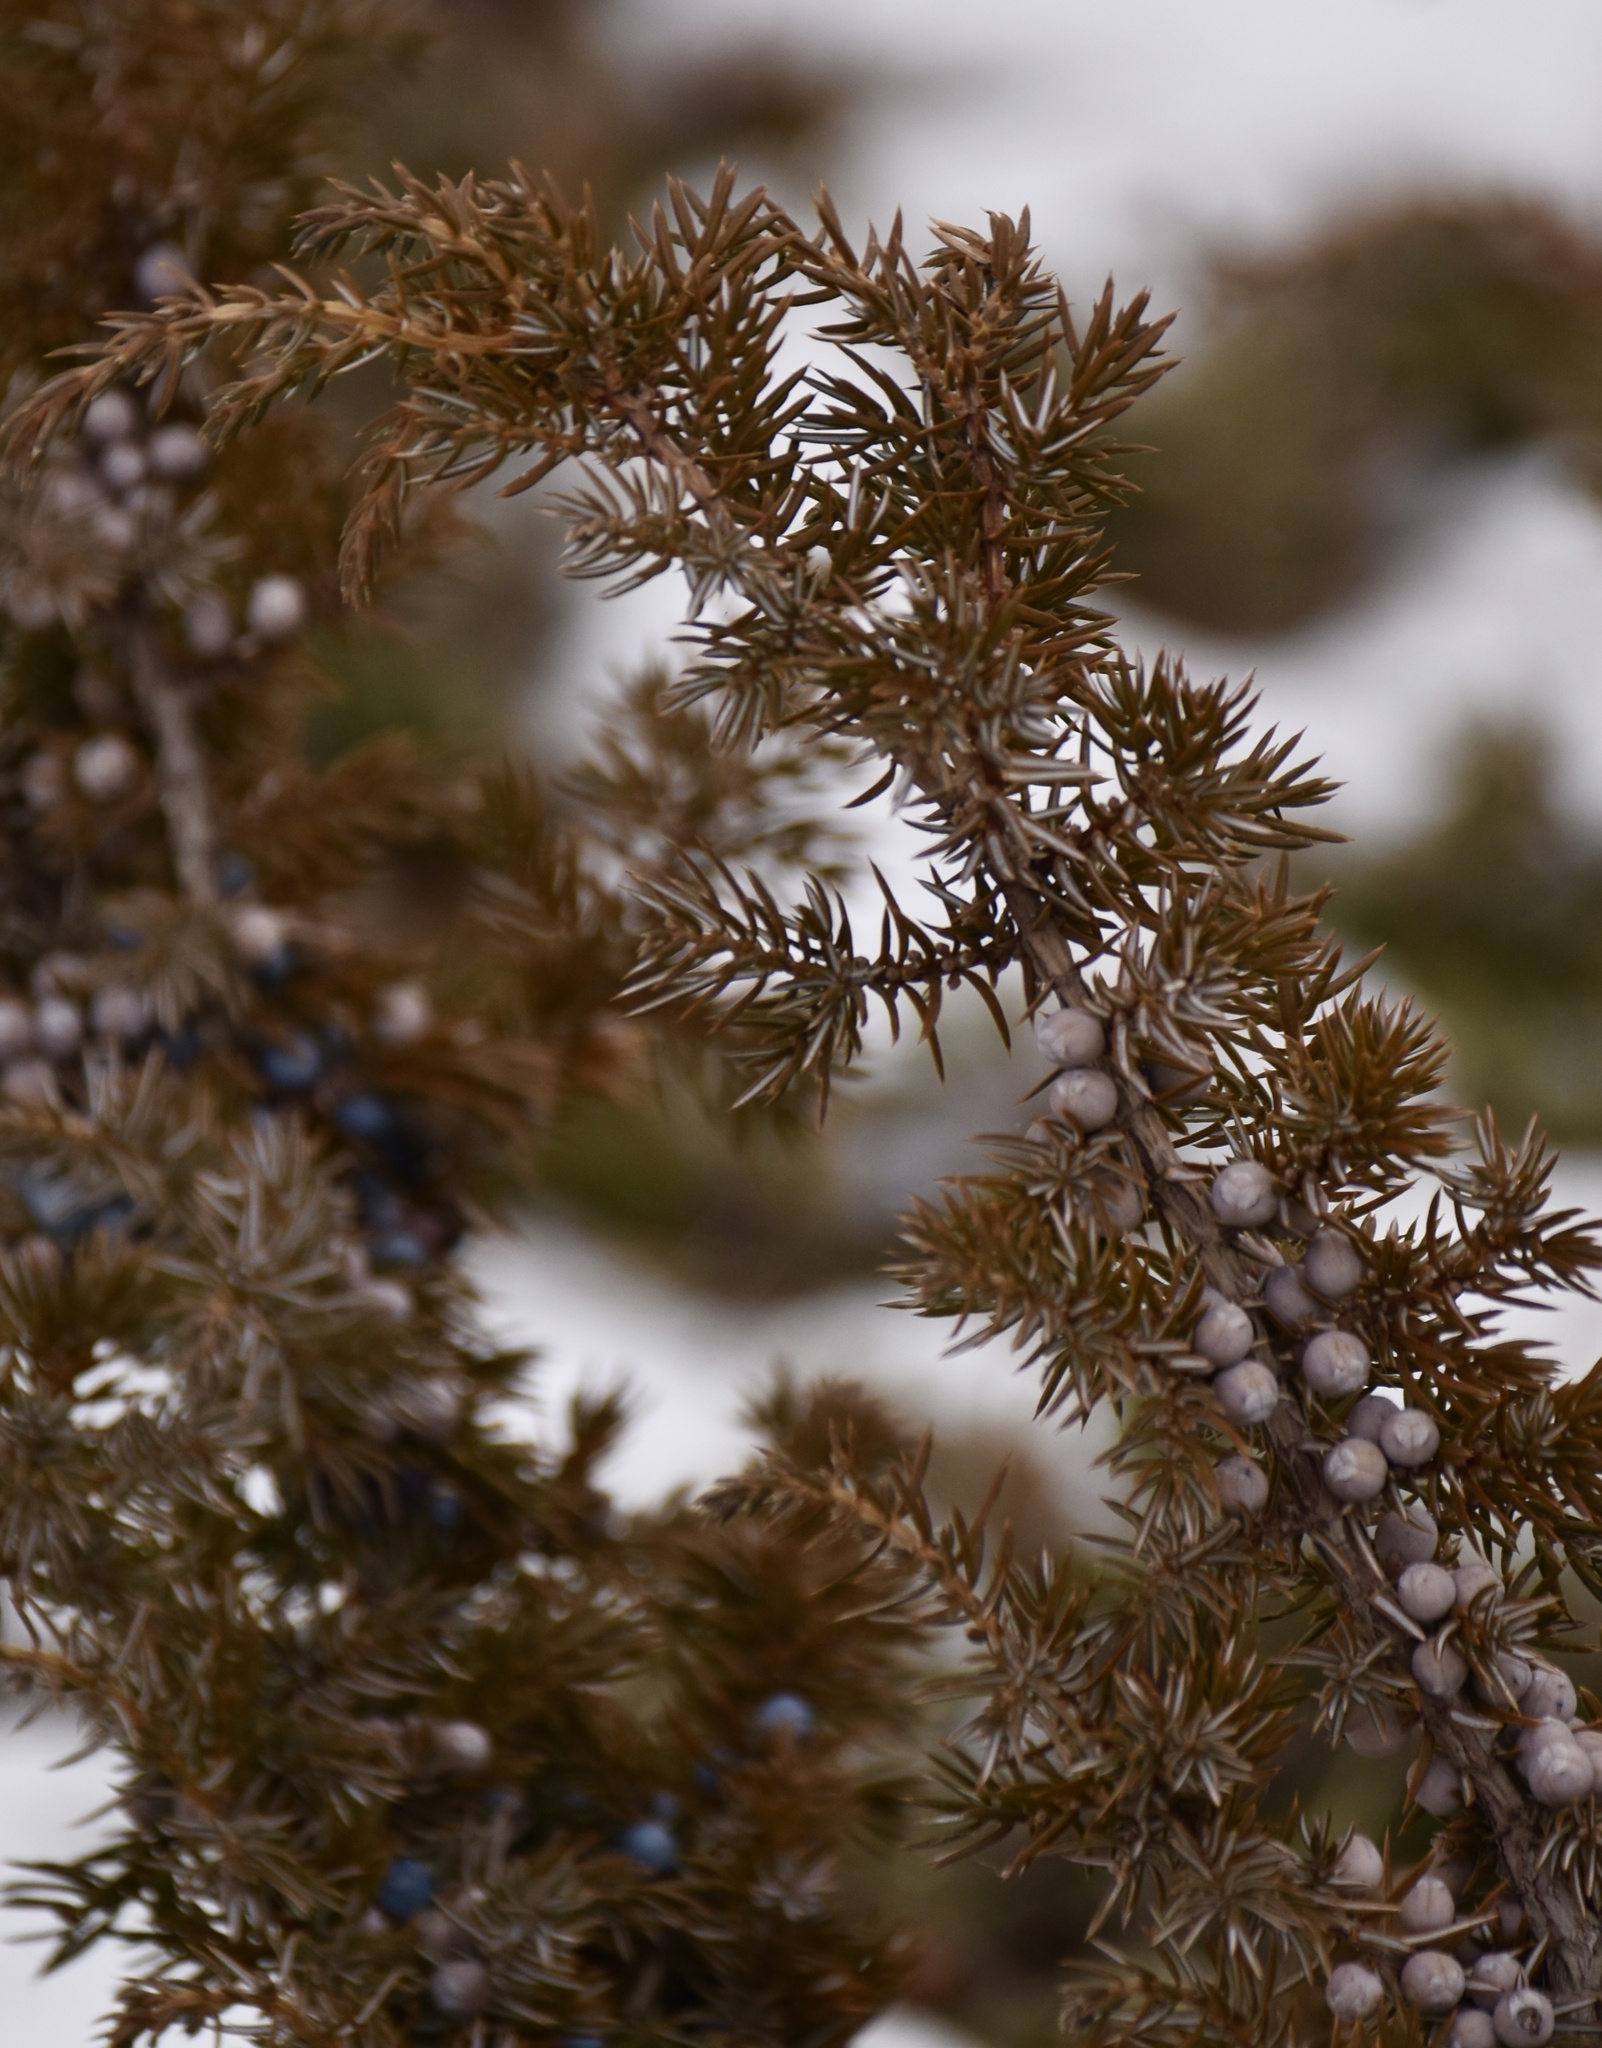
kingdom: Plantae
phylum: Tracheophyta
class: Pinopsida
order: Pinales
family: Cupressaceae
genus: Juniperus
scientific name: Juniperus communis
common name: Common juniper
